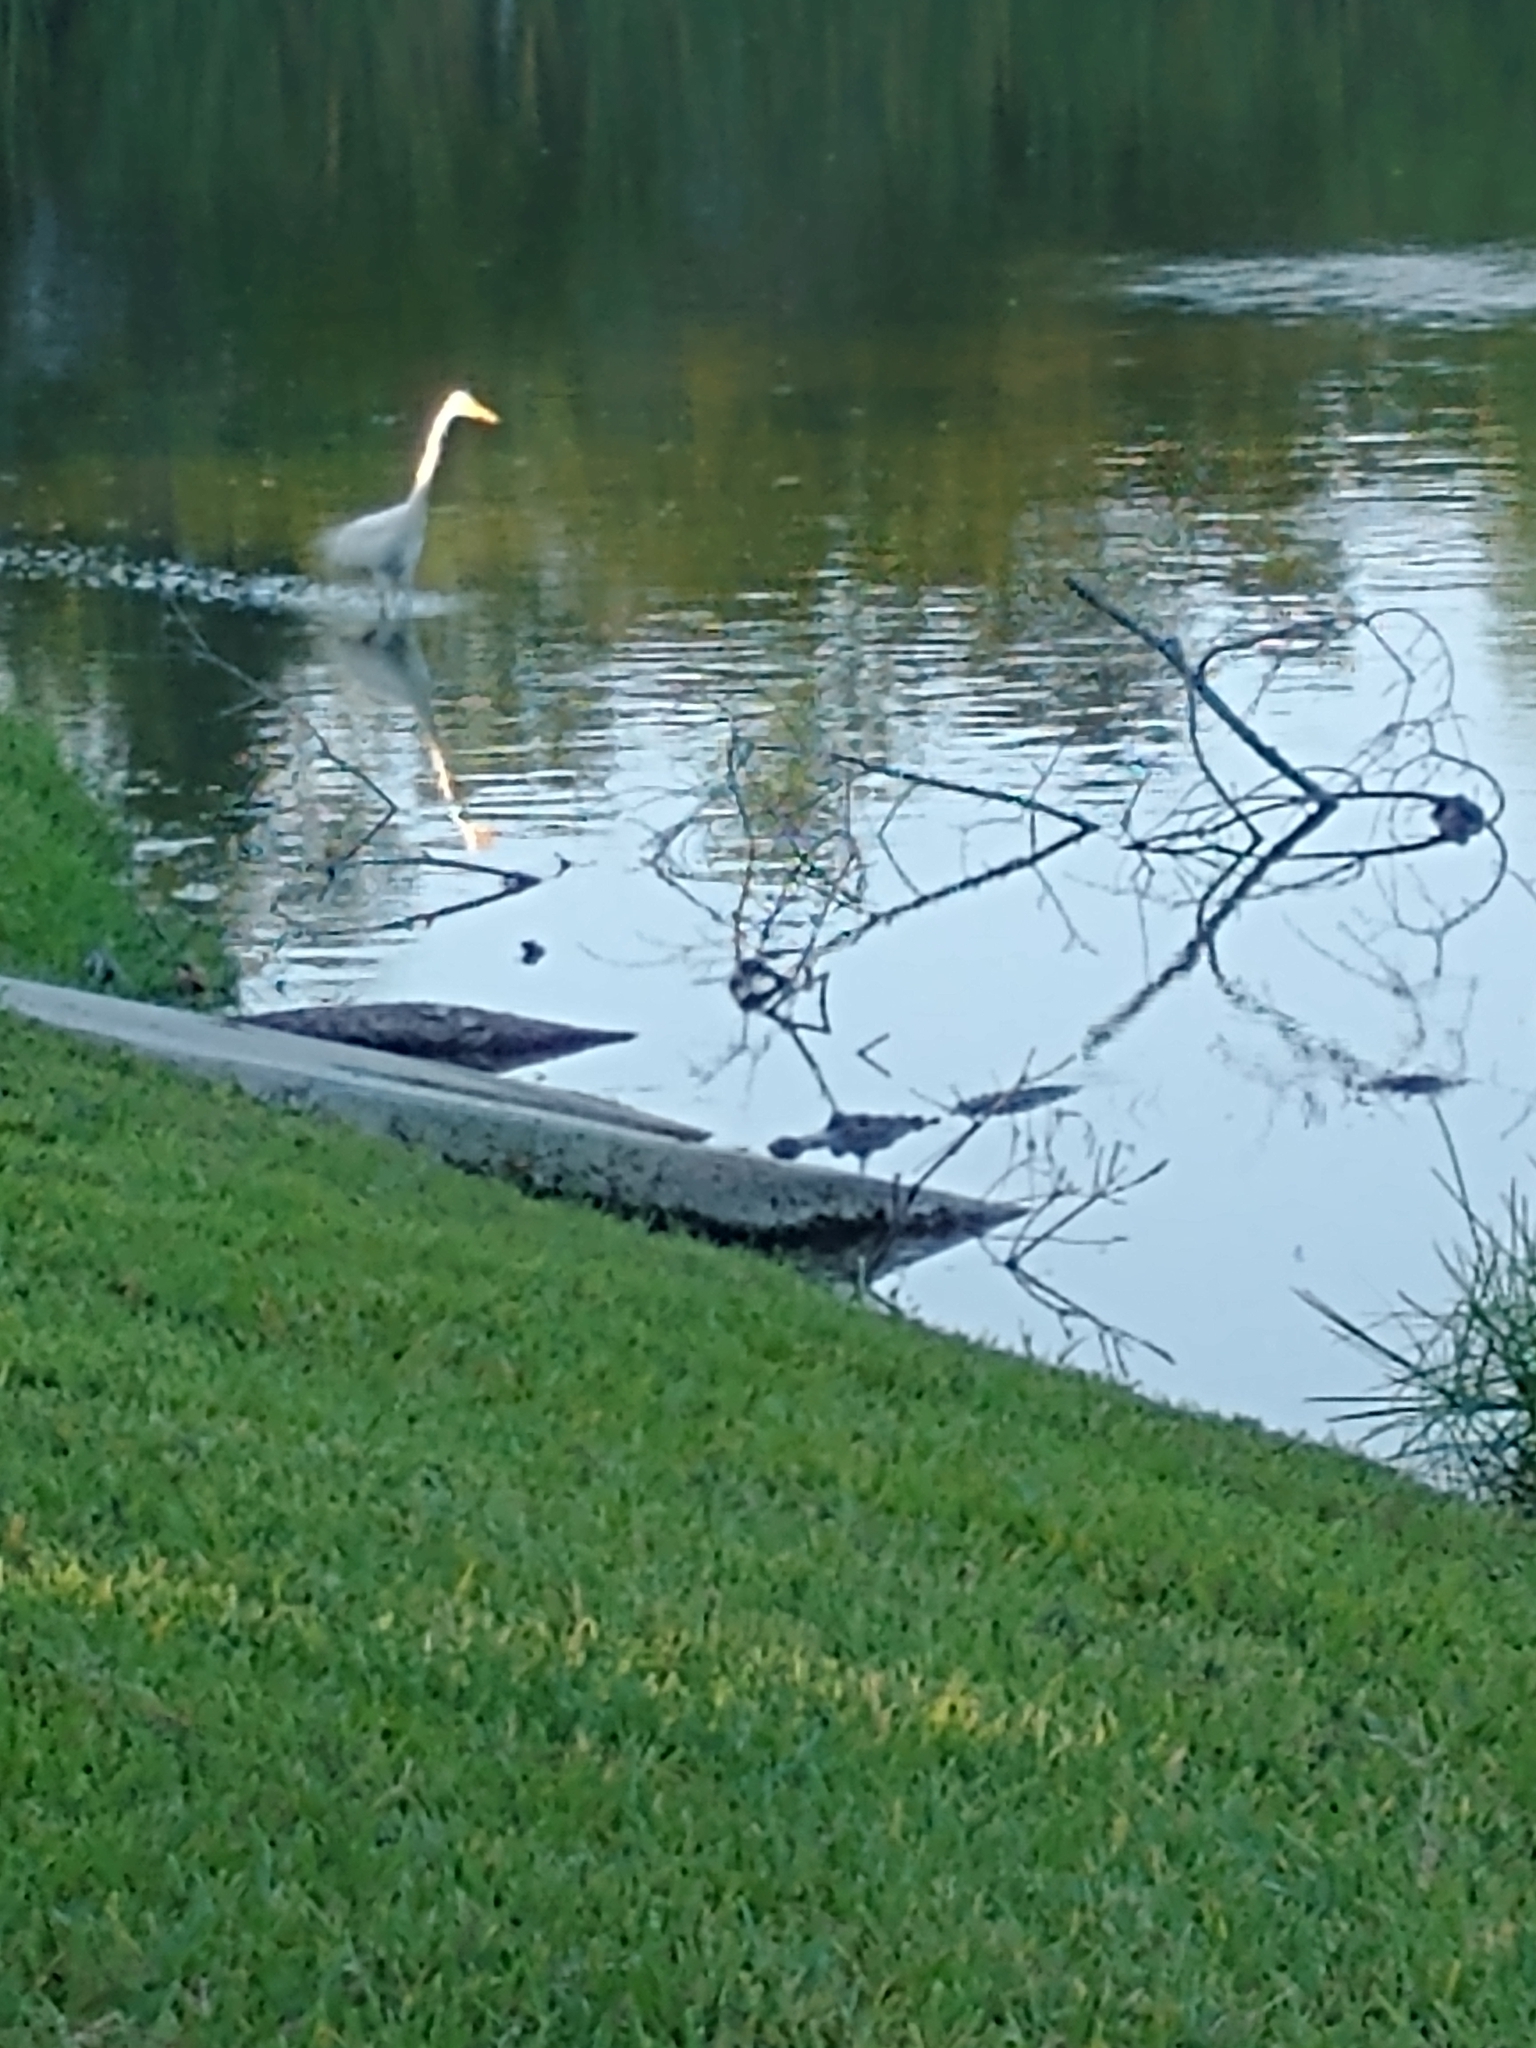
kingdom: Animalia
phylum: Chordata
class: Crocodylia
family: Alligatoridae
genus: Alligator
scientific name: Alligator mississippiensis
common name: American alligator
